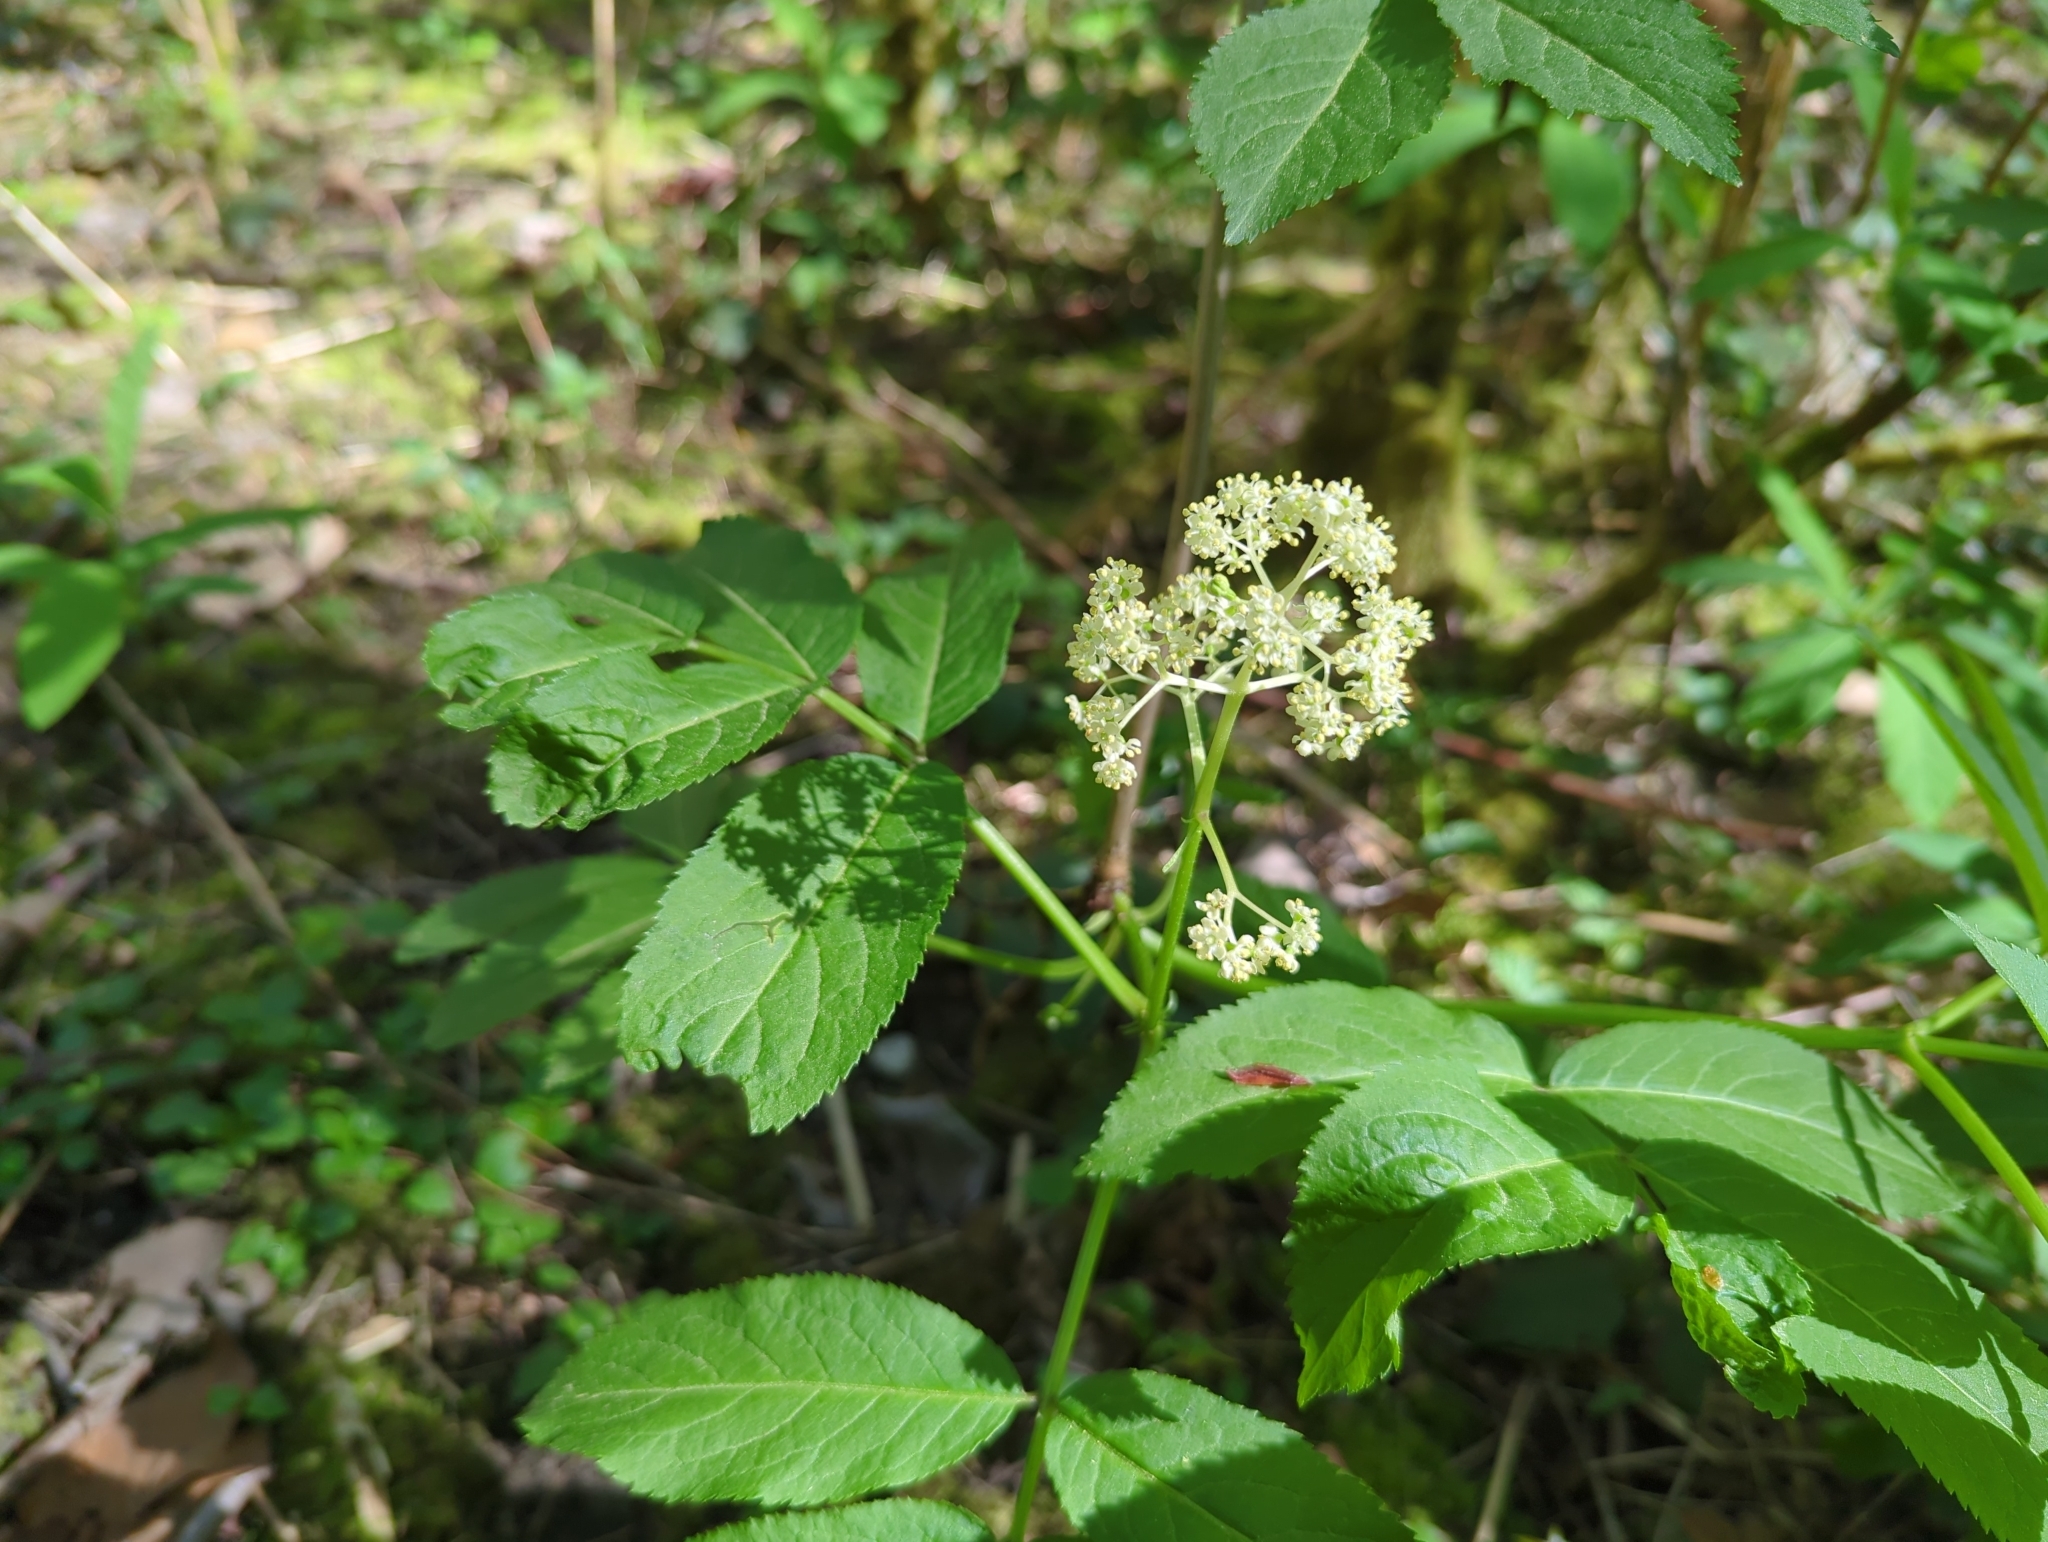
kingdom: Plantae
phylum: Tracheophyta
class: Magnoliopsida
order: Dipsacales
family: Viburnaceae
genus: Sambucus
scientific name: Sambucus racemosa
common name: Red-berried elder
